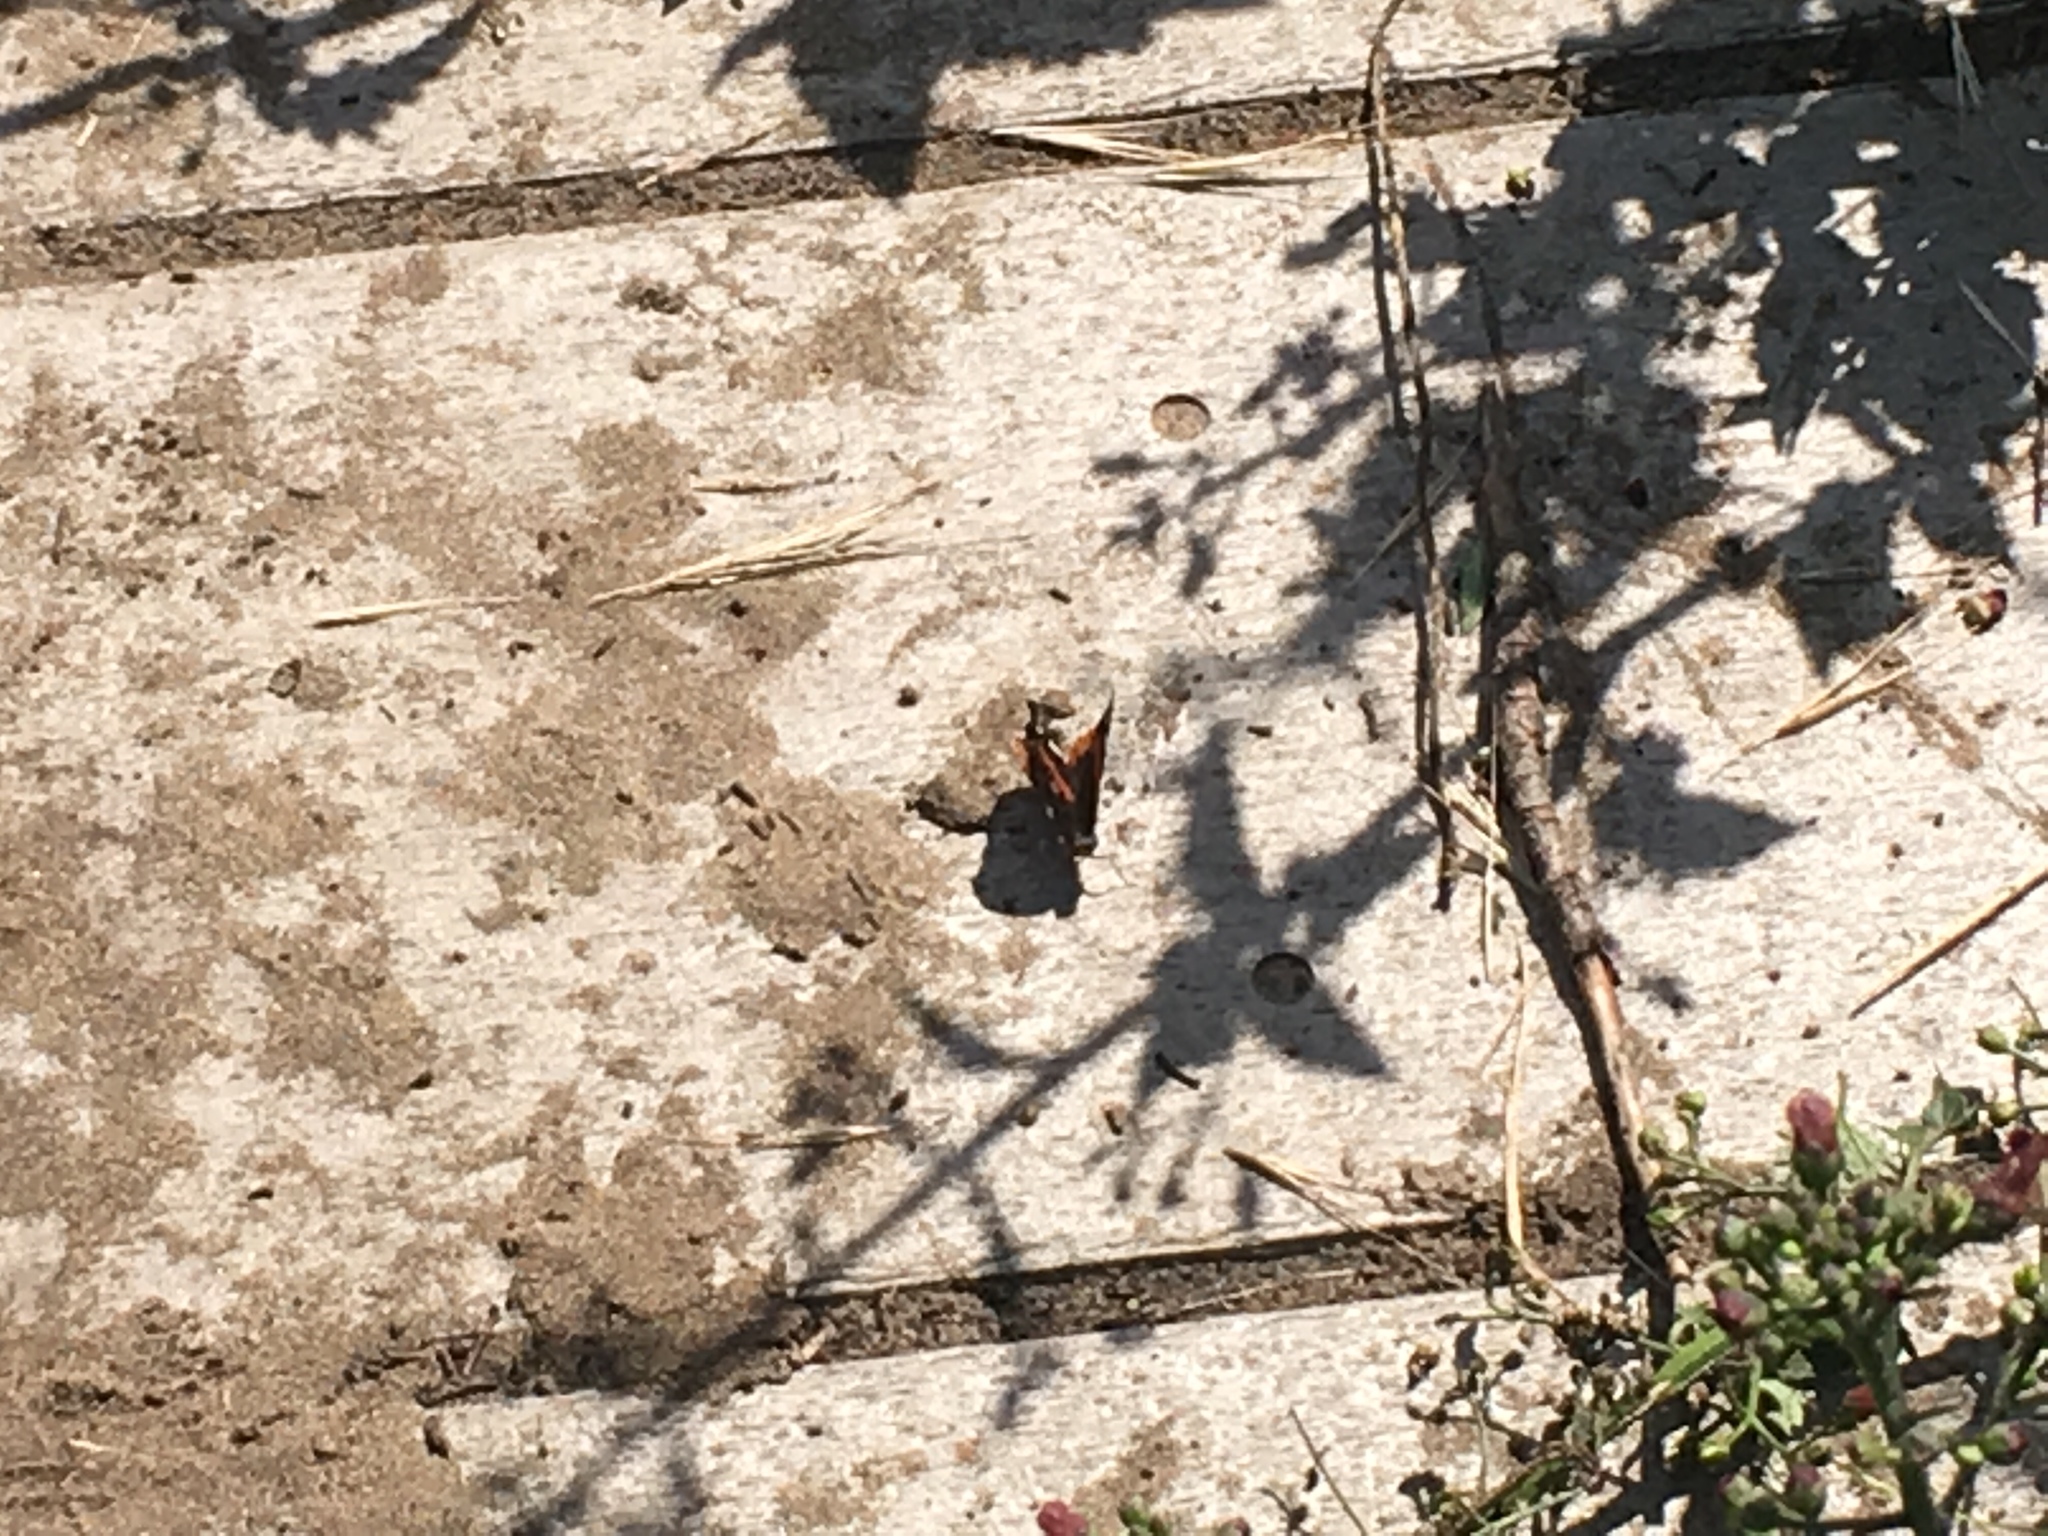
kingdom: Animalia
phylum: Arthropoda
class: Insecta
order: Lepidoptera
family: Nymphalidae
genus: Vanessa
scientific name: Vanessa atalanta
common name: Red admiral
